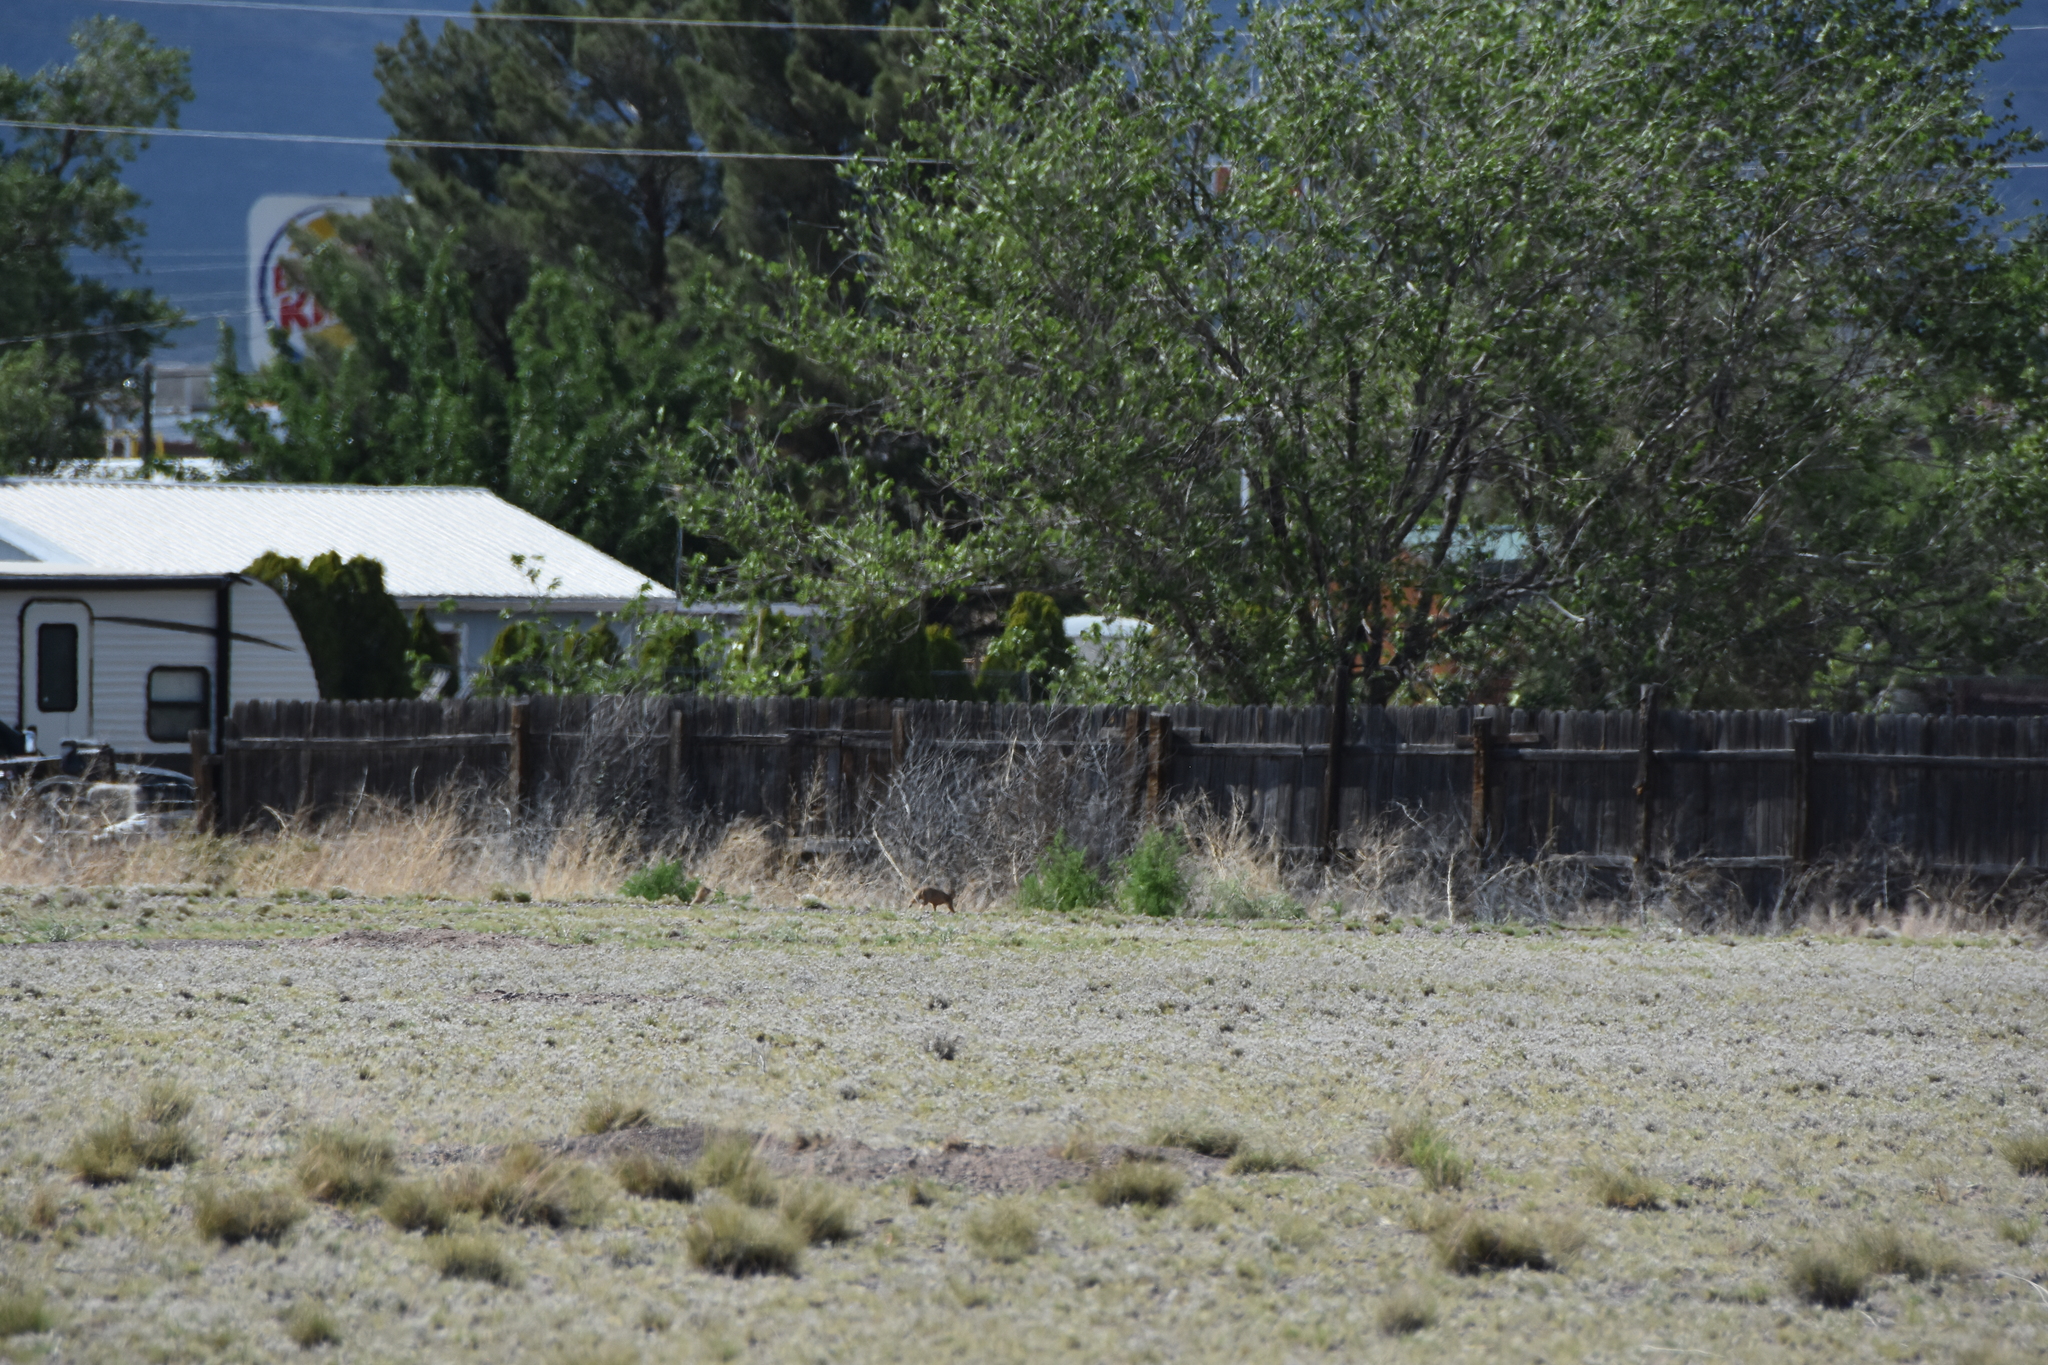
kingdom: Animalia
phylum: Chordata
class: Mammalia
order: Rodentia
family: Sciuridae
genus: Cynomys
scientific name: Cynomys gunnisoni
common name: Gunnison's prairie dog
